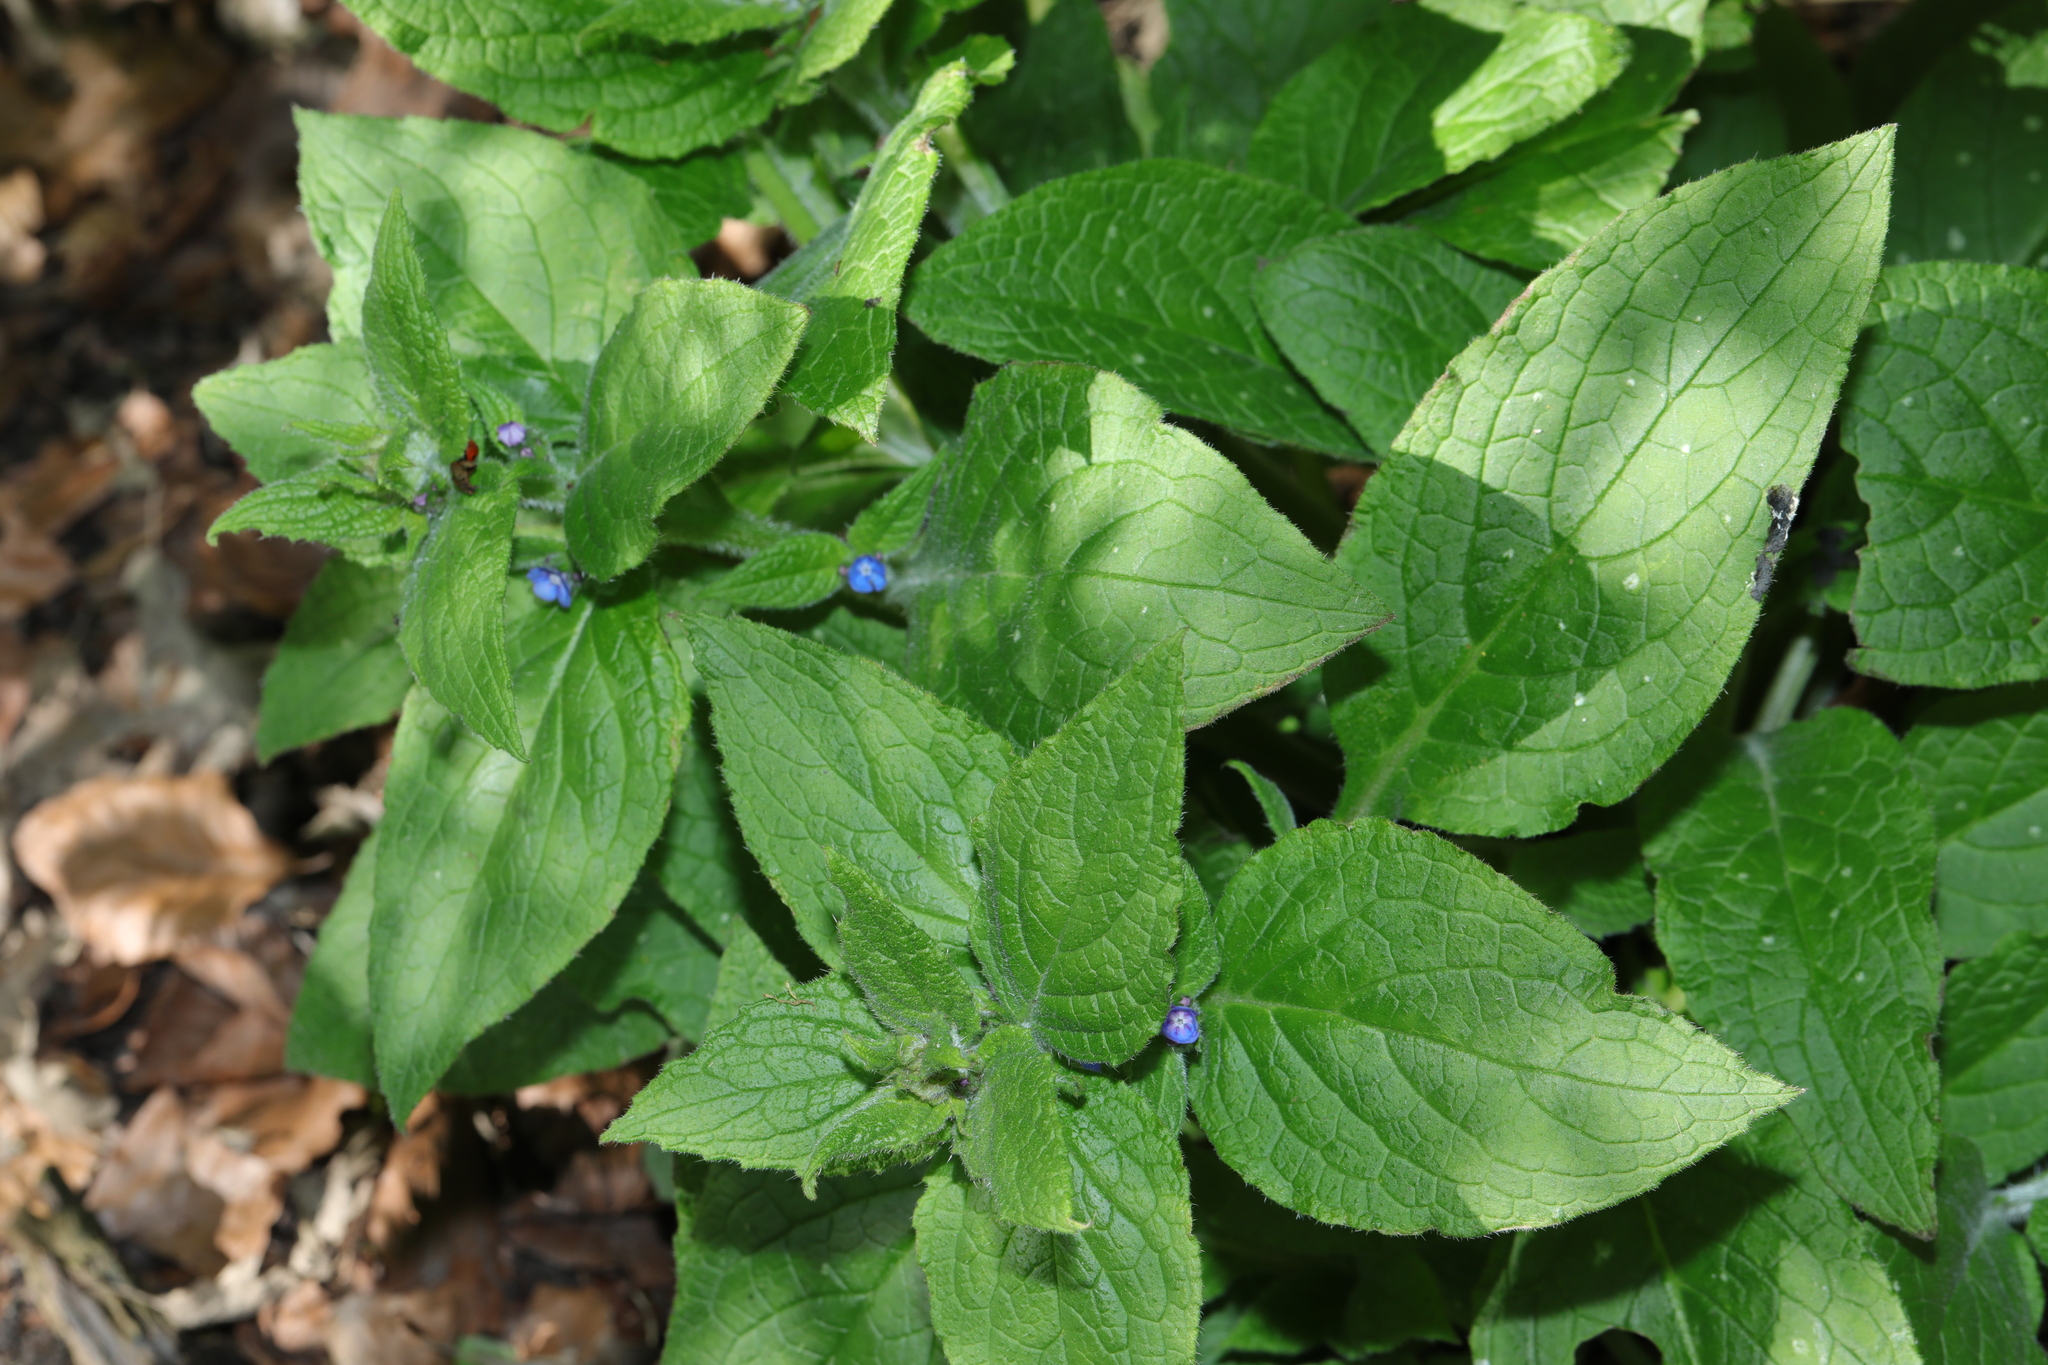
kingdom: Plantae
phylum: Tracheophyta
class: Magnoliopsida
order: Boraginales
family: Boraginaceae
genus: Pentaglottis
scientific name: Pentaglottis sempervirens
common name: Green alkanet
